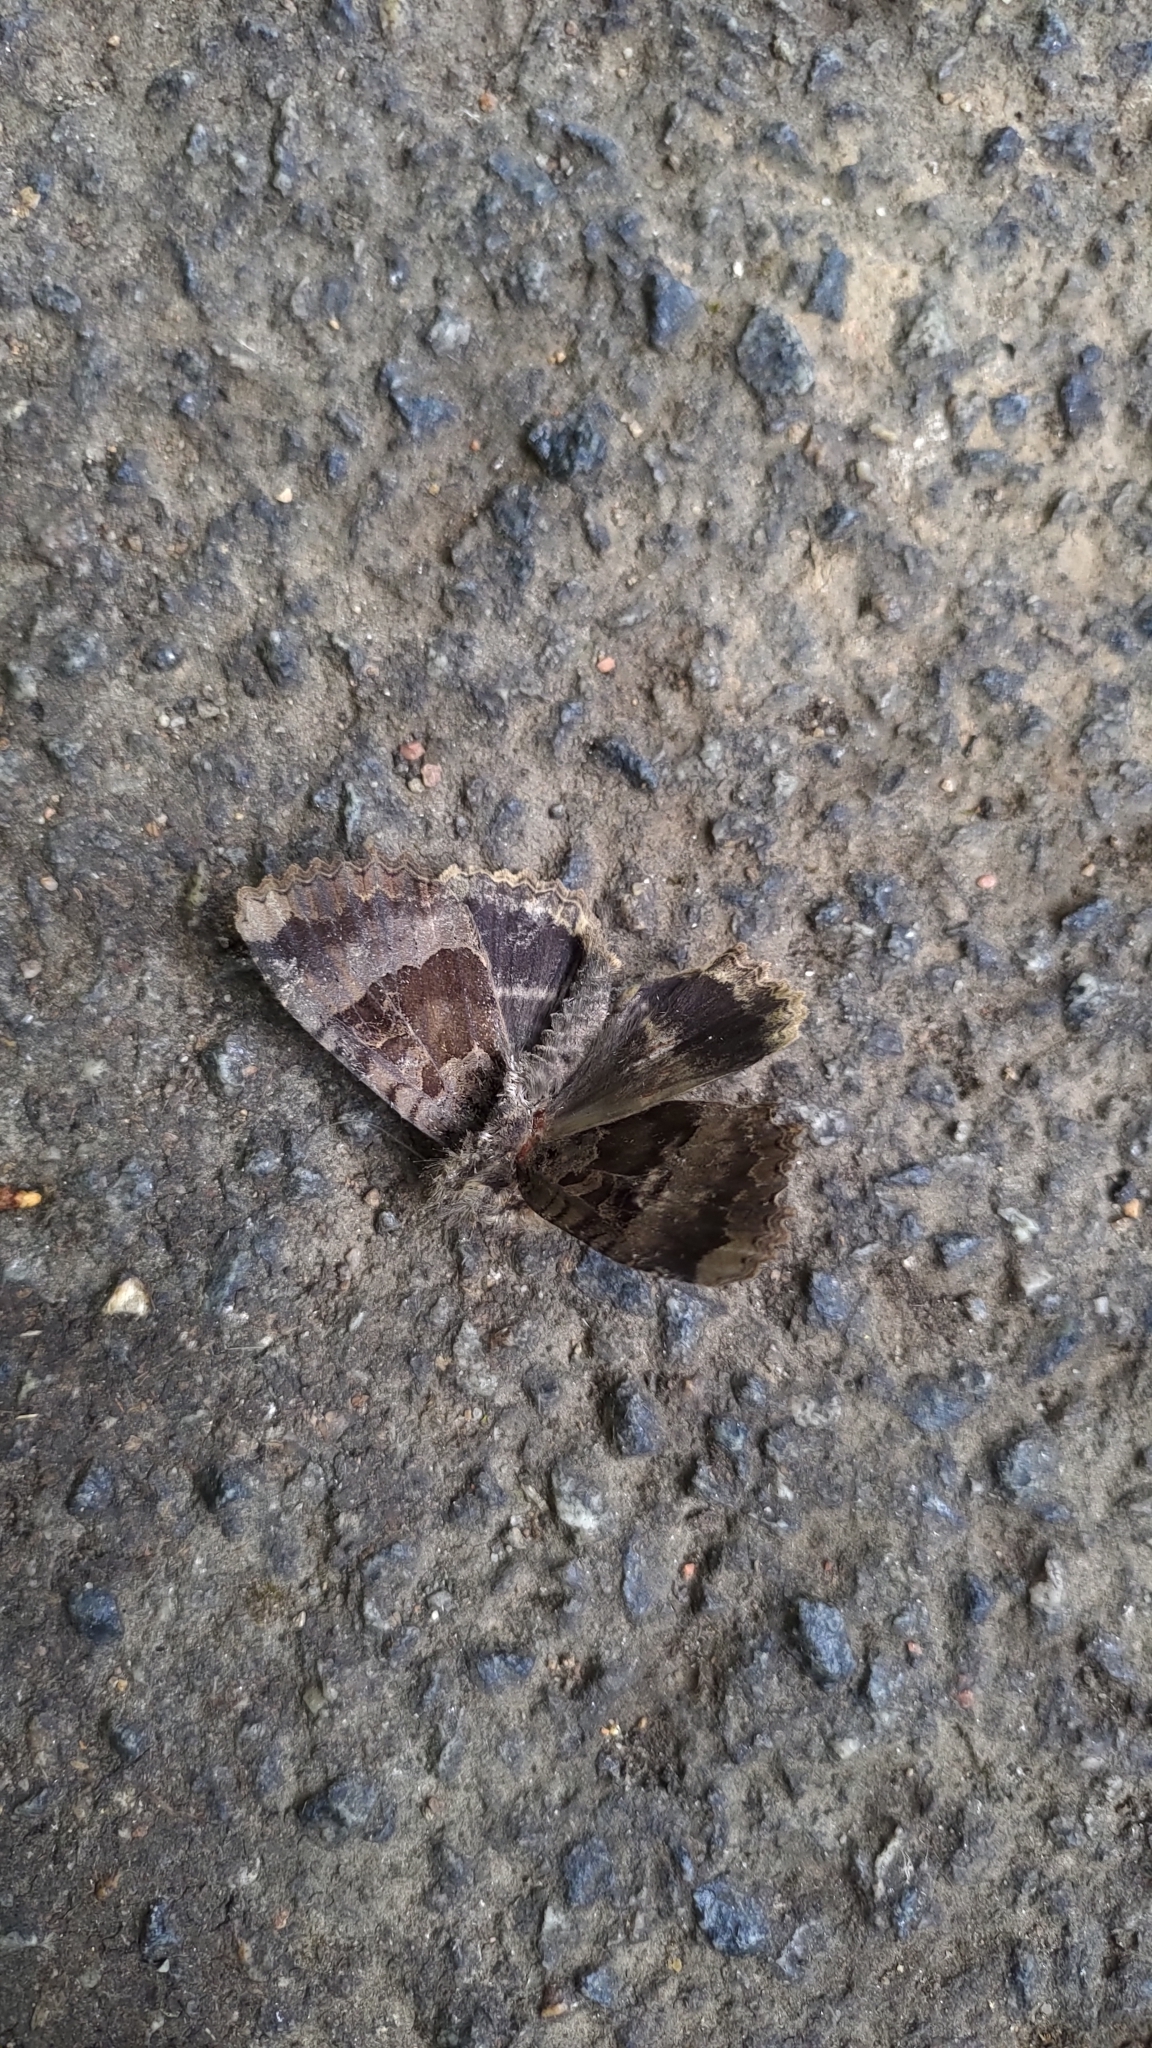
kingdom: Animalia
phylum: Arthropoda
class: Insecta
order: Lepidoptera
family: Noctuidae
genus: Mormo
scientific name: Mormo maura
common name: Old lady
